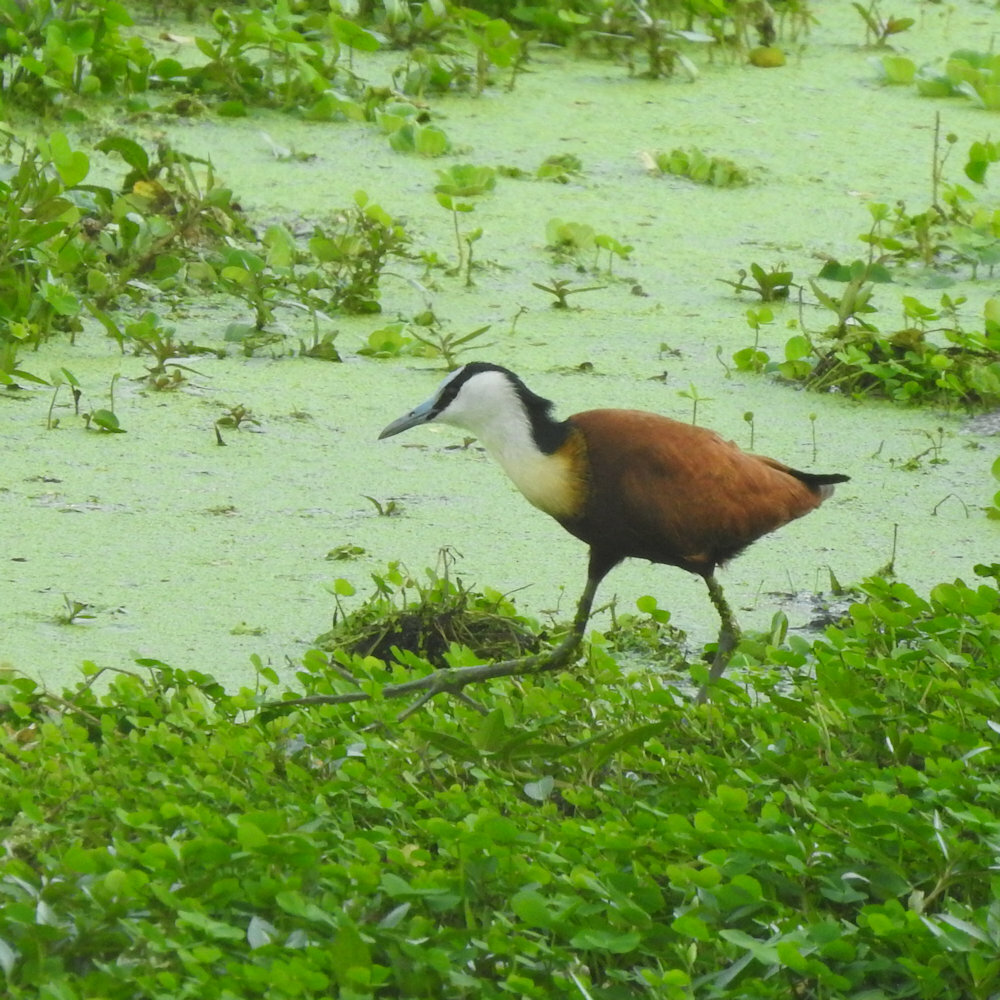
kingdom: Animalia
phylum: Chordata
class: Aves
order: Charadriiformes
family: Jacanidae
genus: Actophilornis
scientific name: Actophilornis africanus
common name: African jacana
